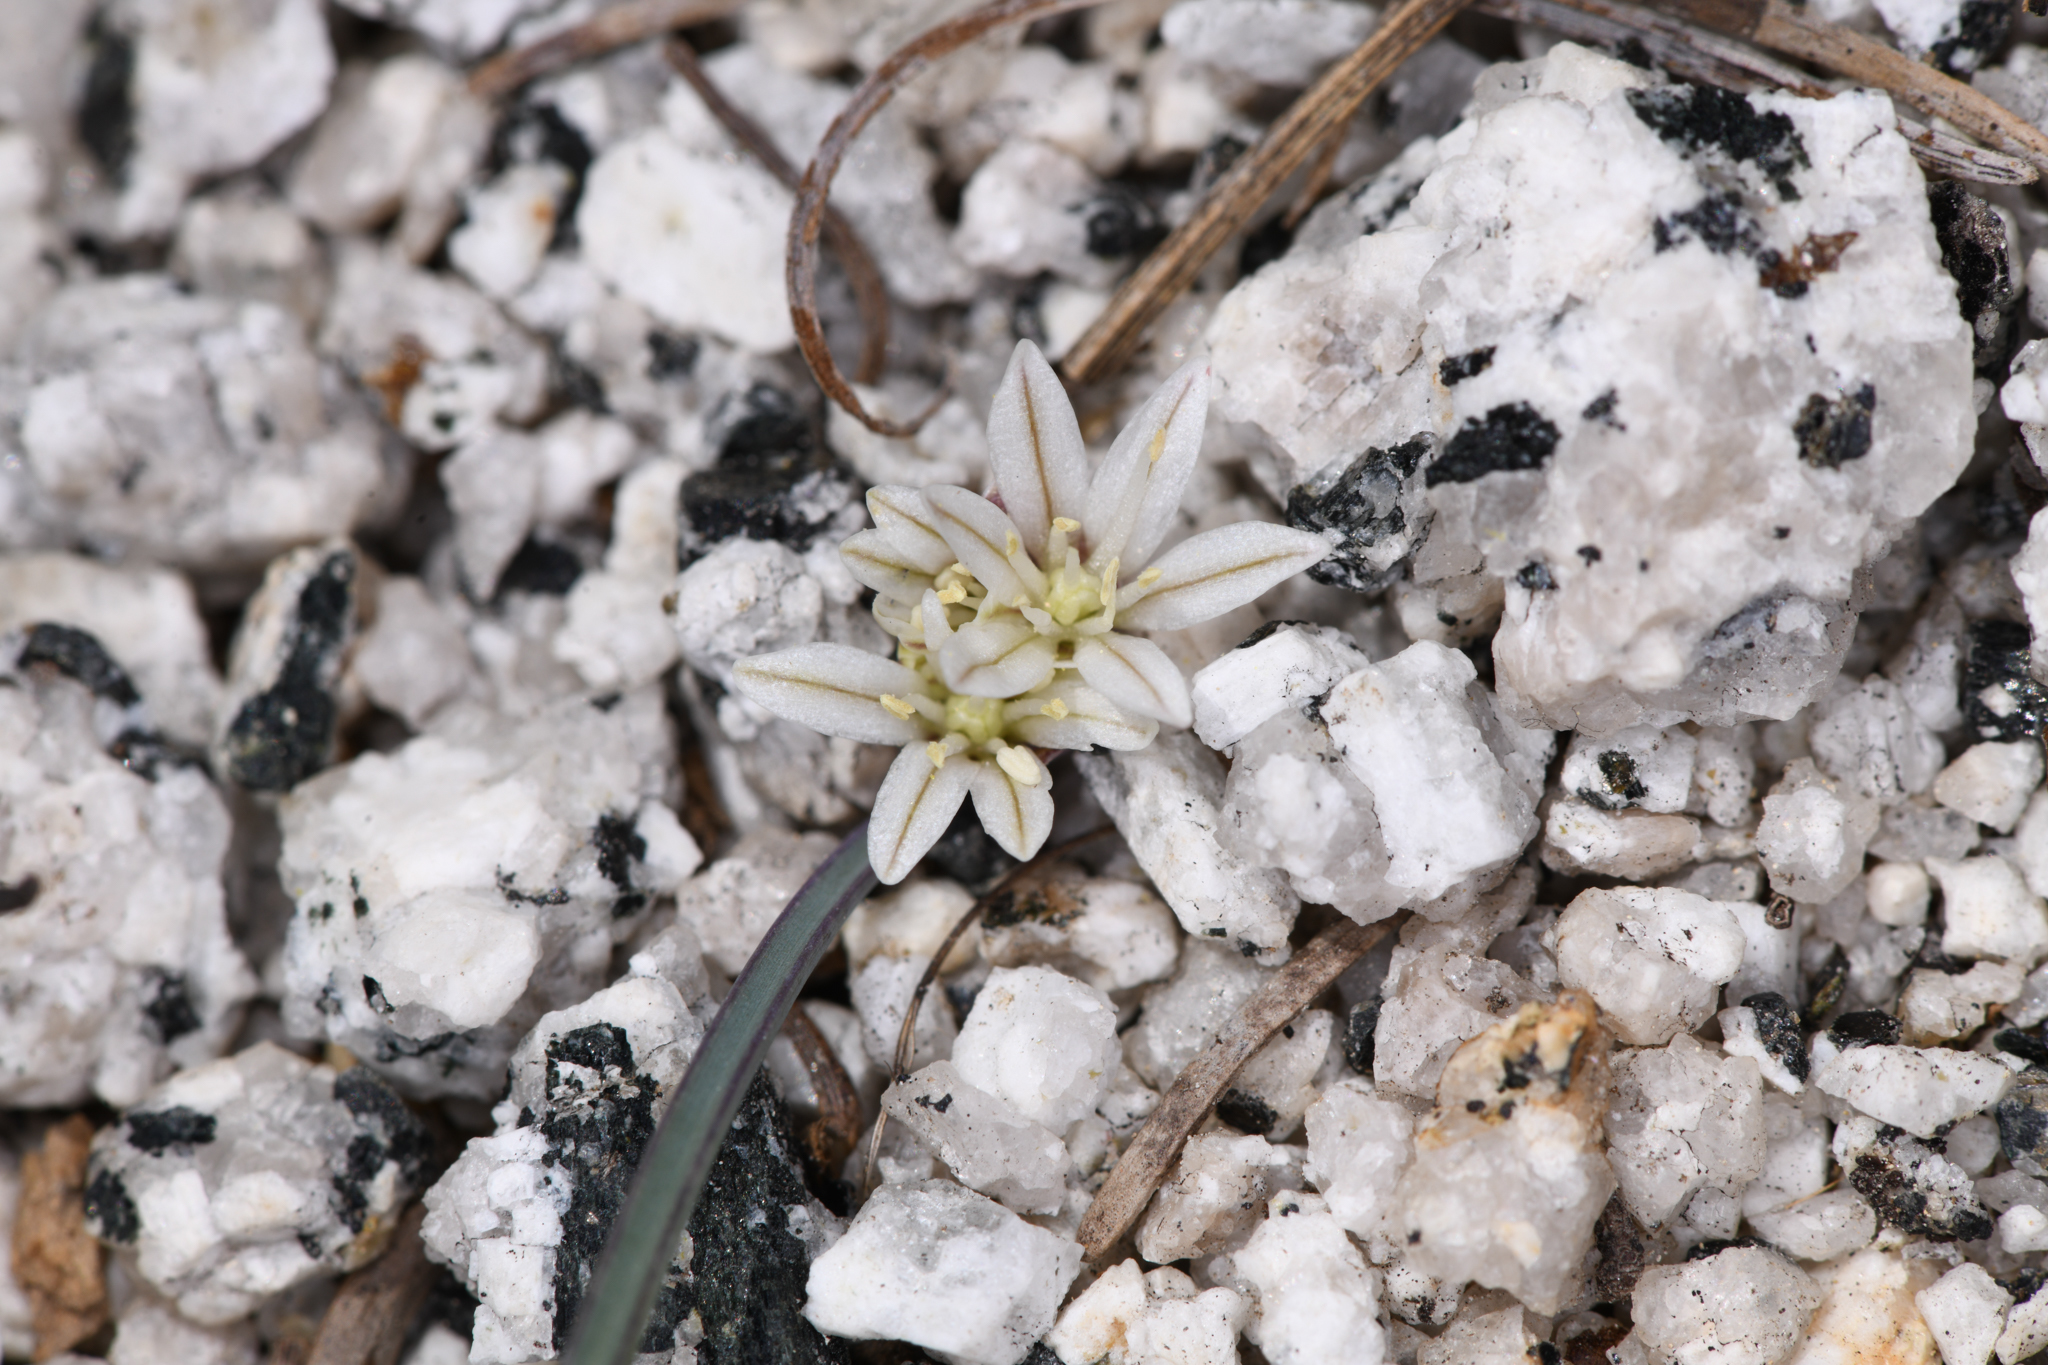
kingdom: Plantae
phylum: Tracheophyta
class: Liliopsida
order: Asparagales
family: Amaryllidaceae
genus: Allium
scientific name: Allium obtusum
